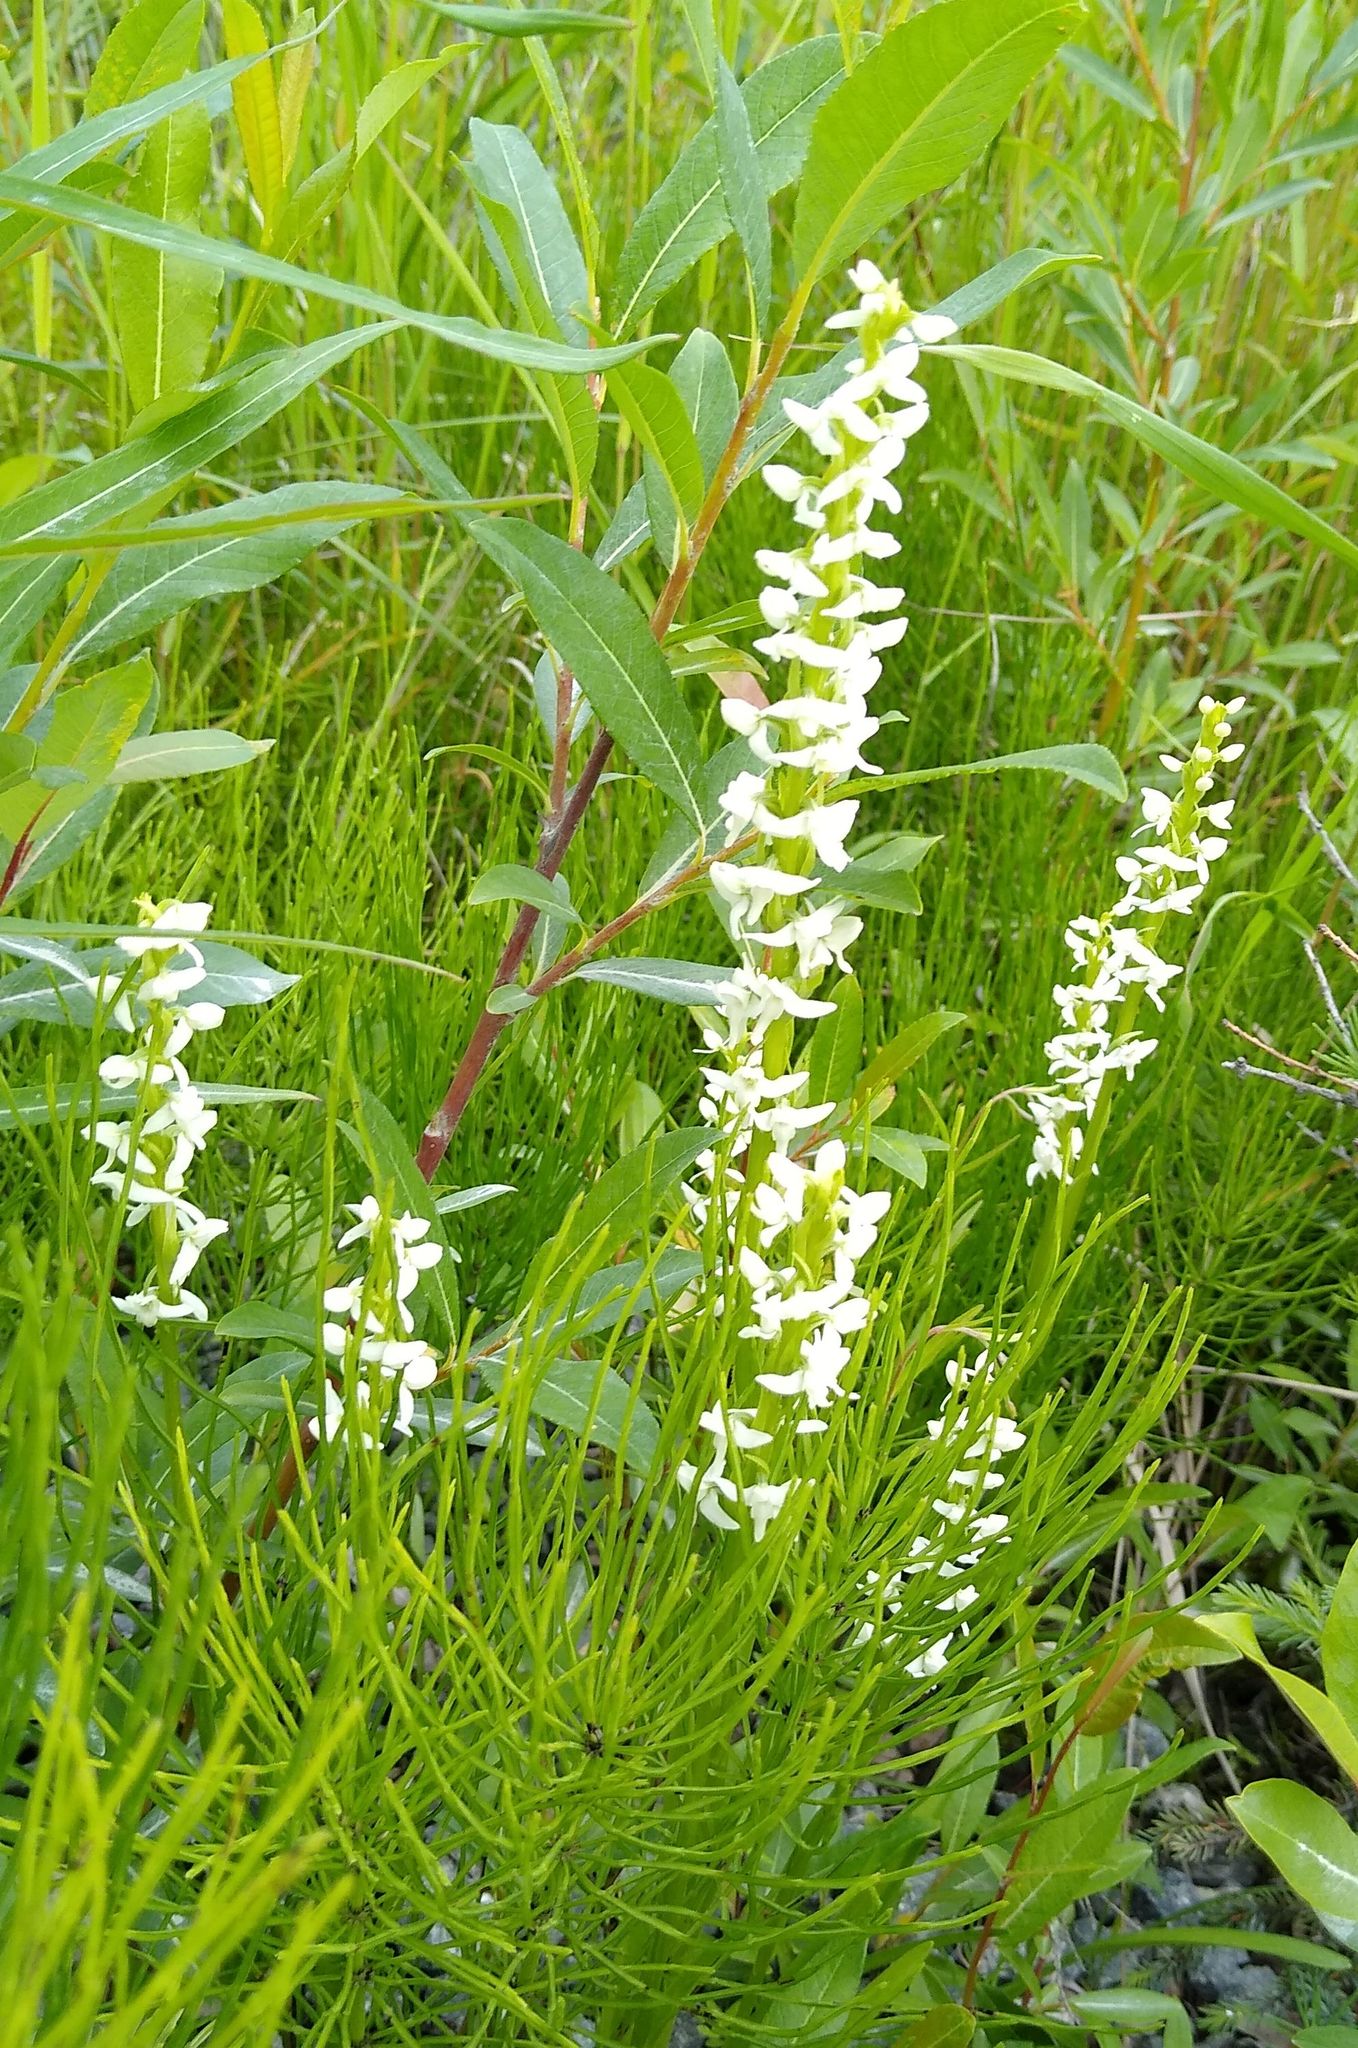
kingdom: Plantae
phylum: Tracheophyta
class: Liliopsida
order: Asparagales
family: Orchidaceae
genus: Platanthera
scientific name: Platanthera dilatata
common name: Bog candles
